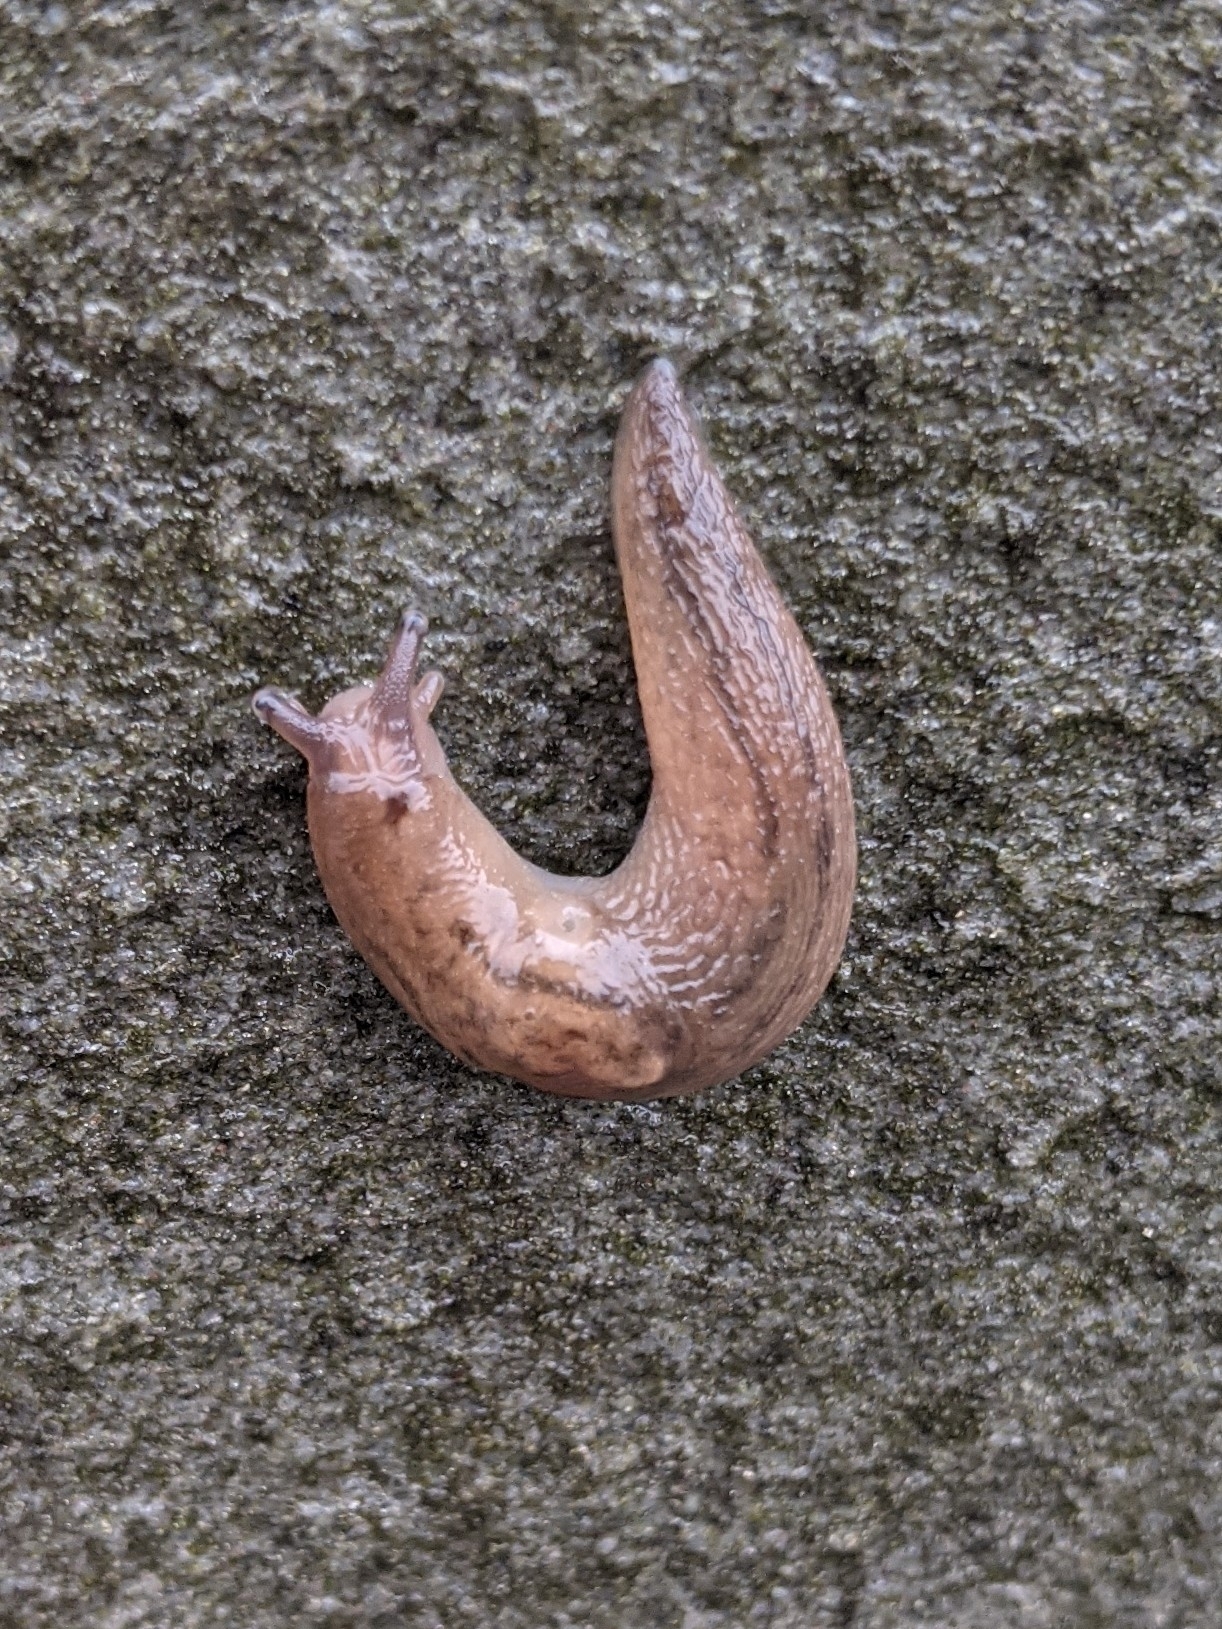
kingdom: Animalia
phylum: Mollusca
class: Gastropoda
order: Stylommatophora
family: Limacidae
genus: Ambigolimax
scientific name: Ambigolimax
